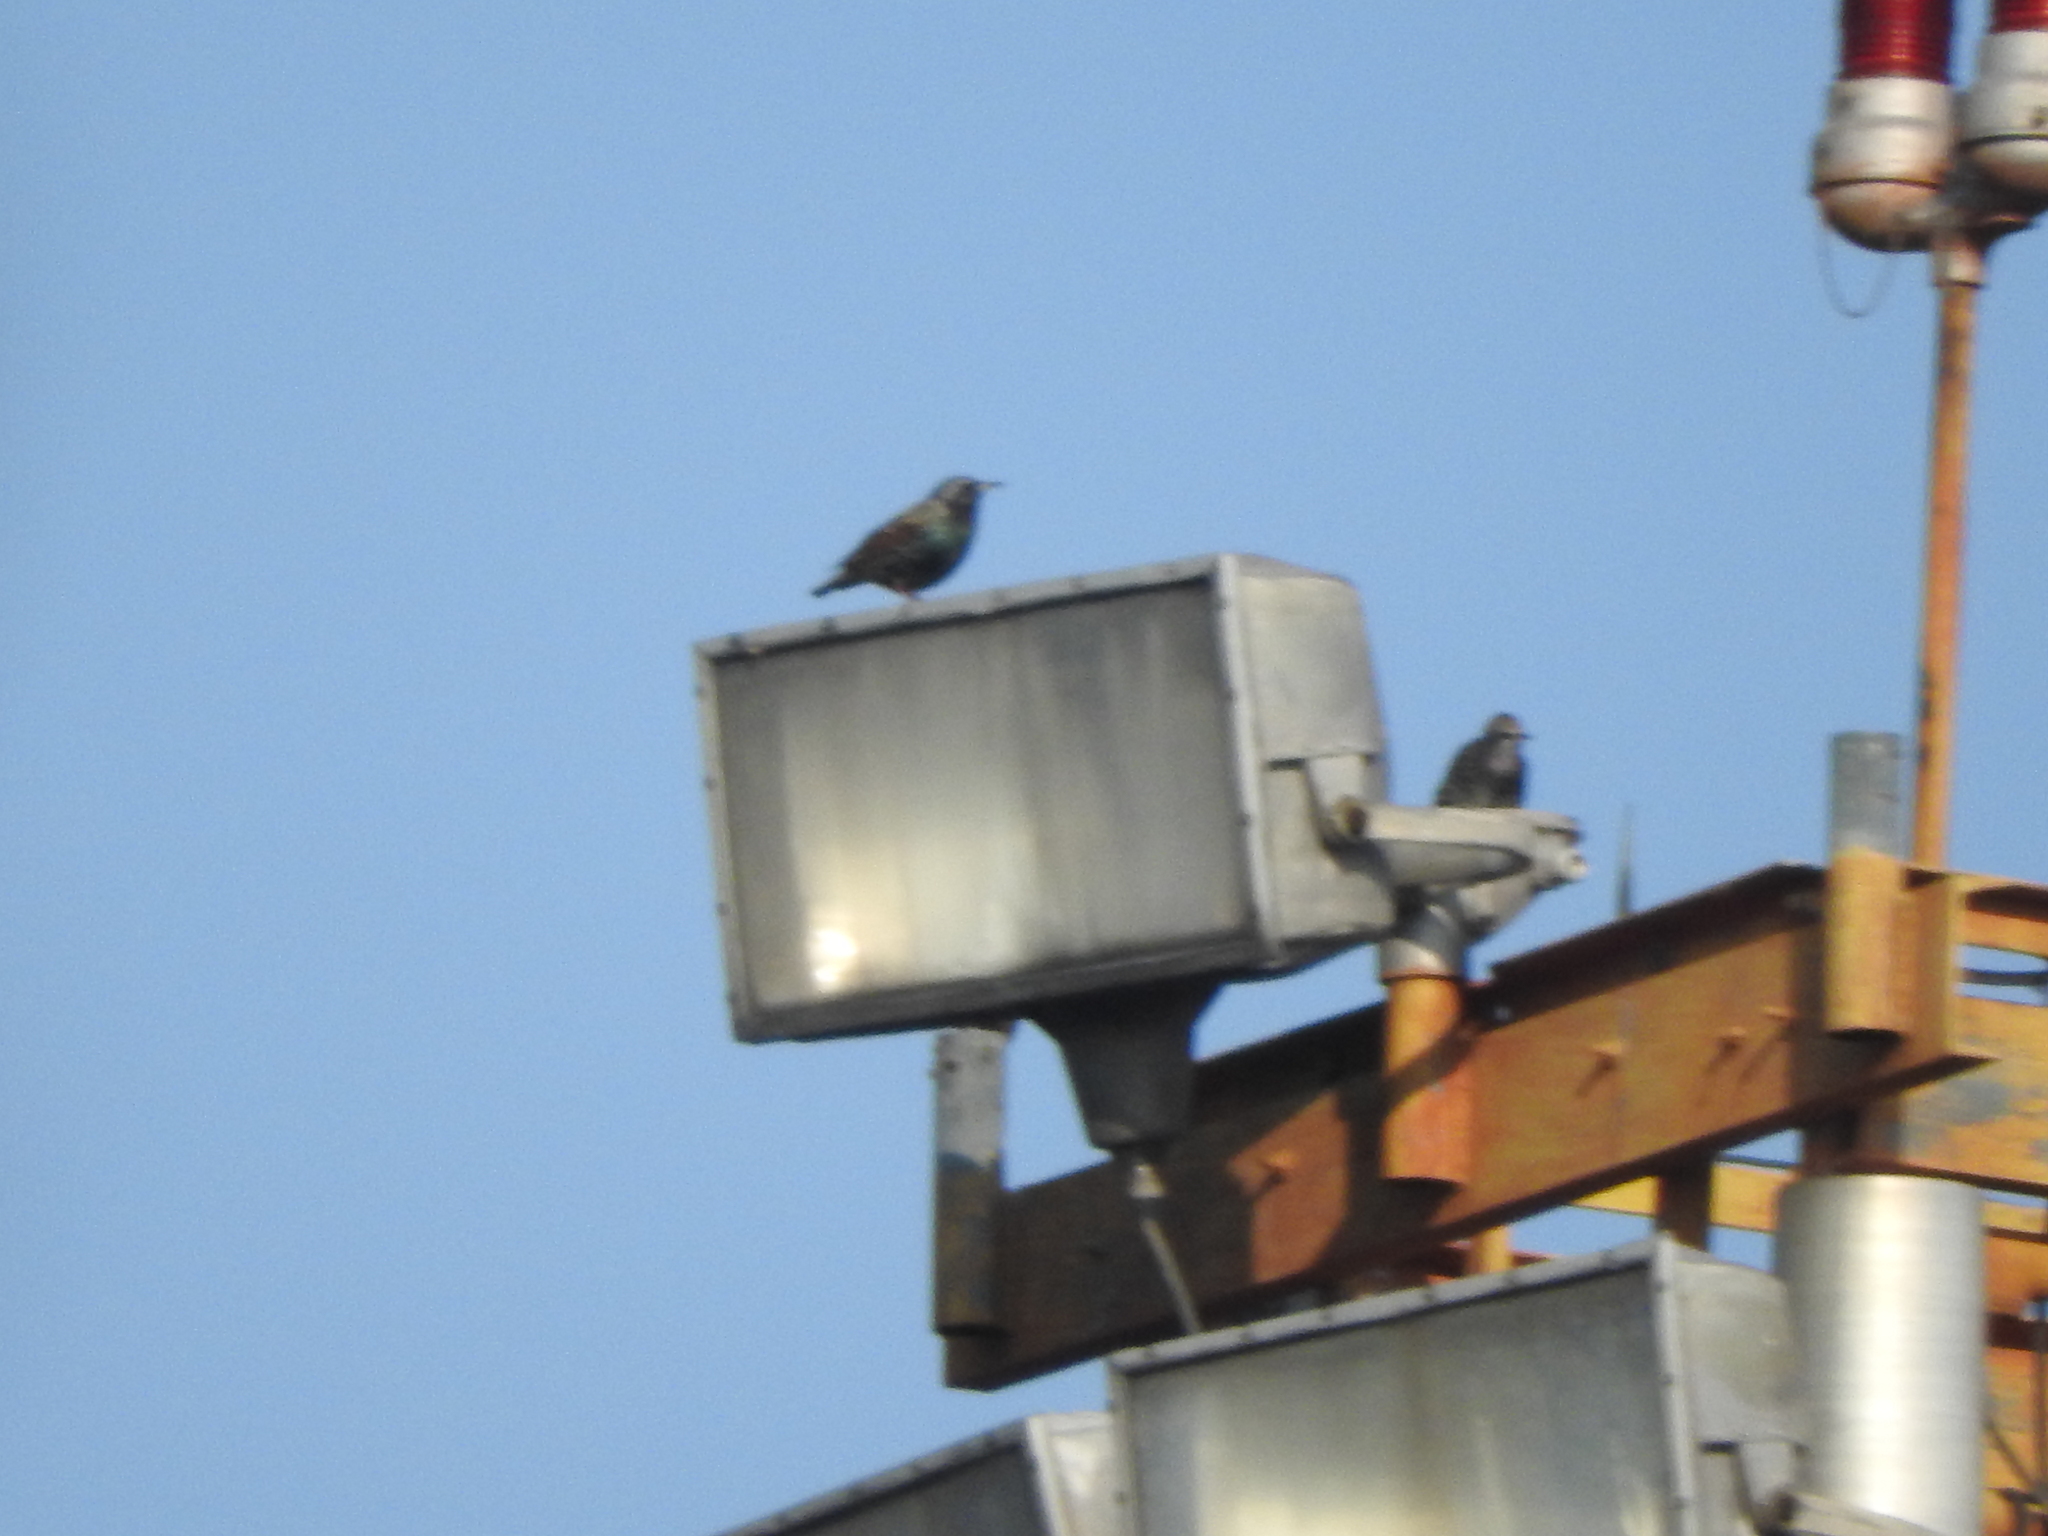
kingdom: Animalia
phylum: Chordata
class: Aves
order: Passeriformes
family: Sturnidae
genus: Sturnus
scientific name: Sturnus vulgaris
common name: Common starling
